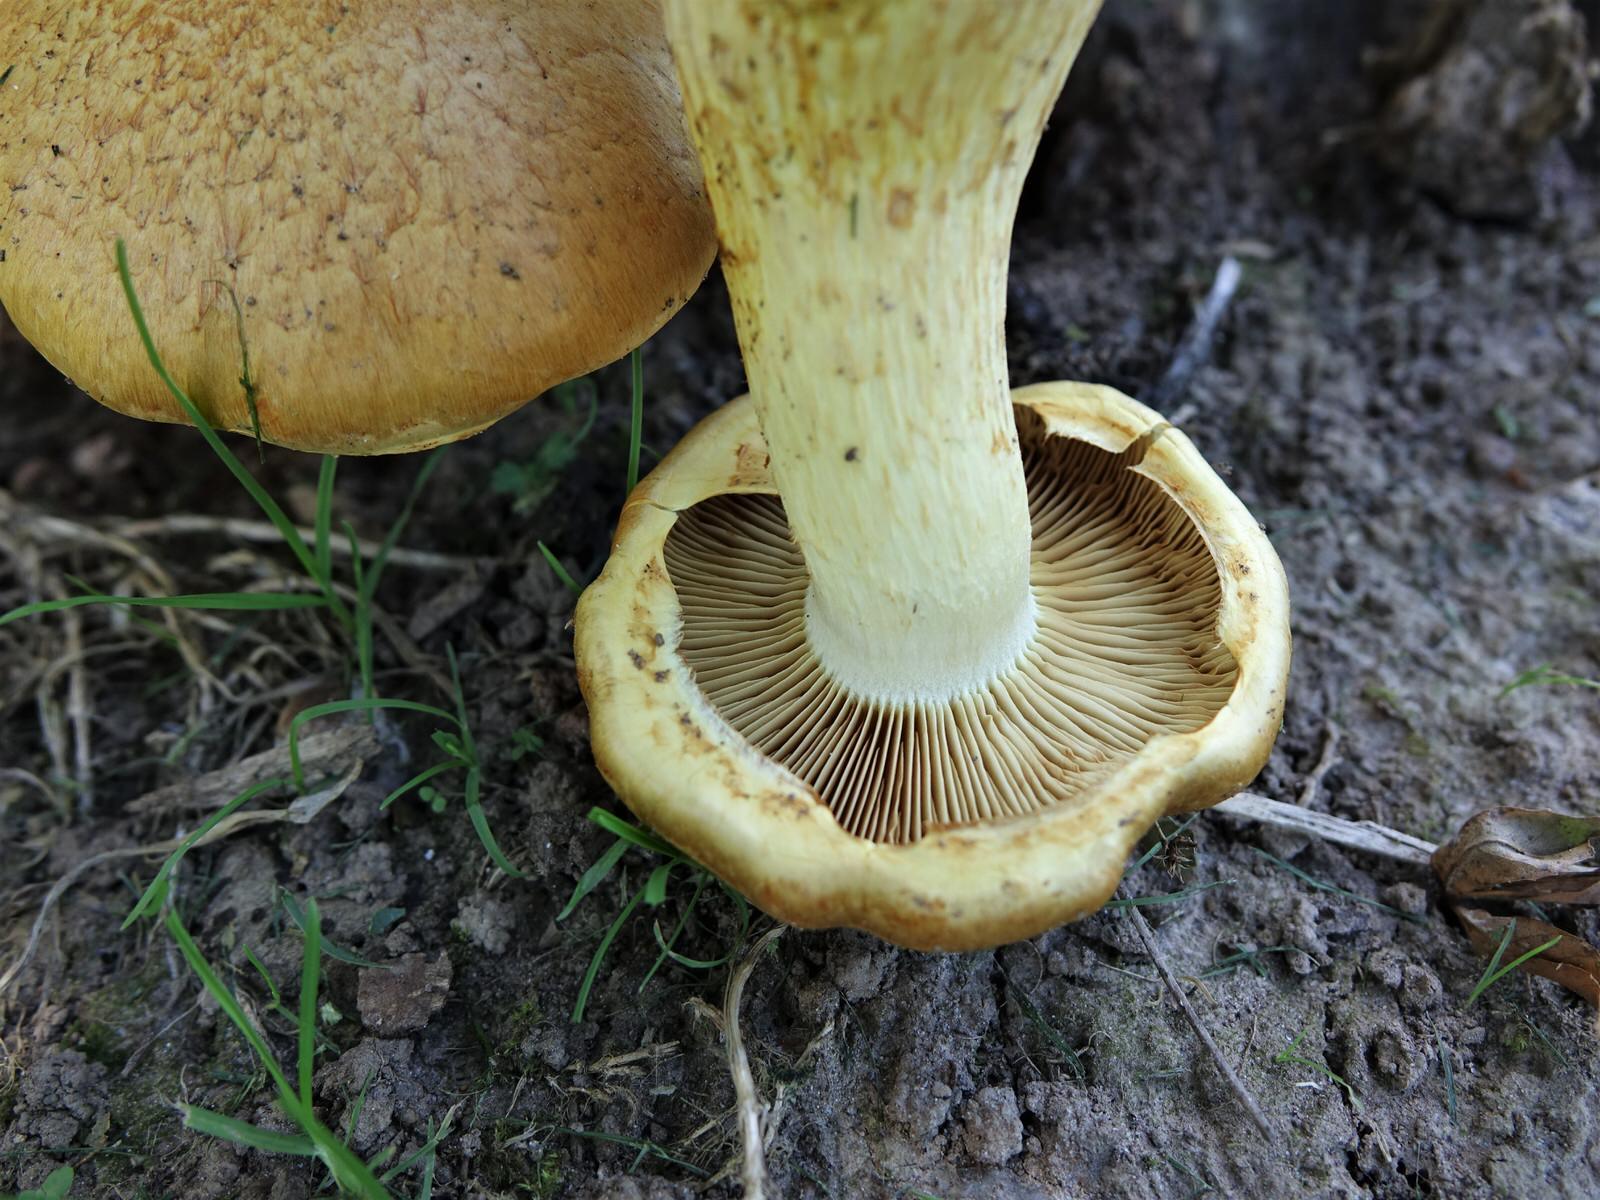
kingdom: Fungi
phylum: Basidiomycota
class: Agaricomycetes
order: Agaricales
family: Hymenogastraceae
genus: Gymnopilus
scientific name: Gymnopilus junonius
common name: Spectacular rustgill
